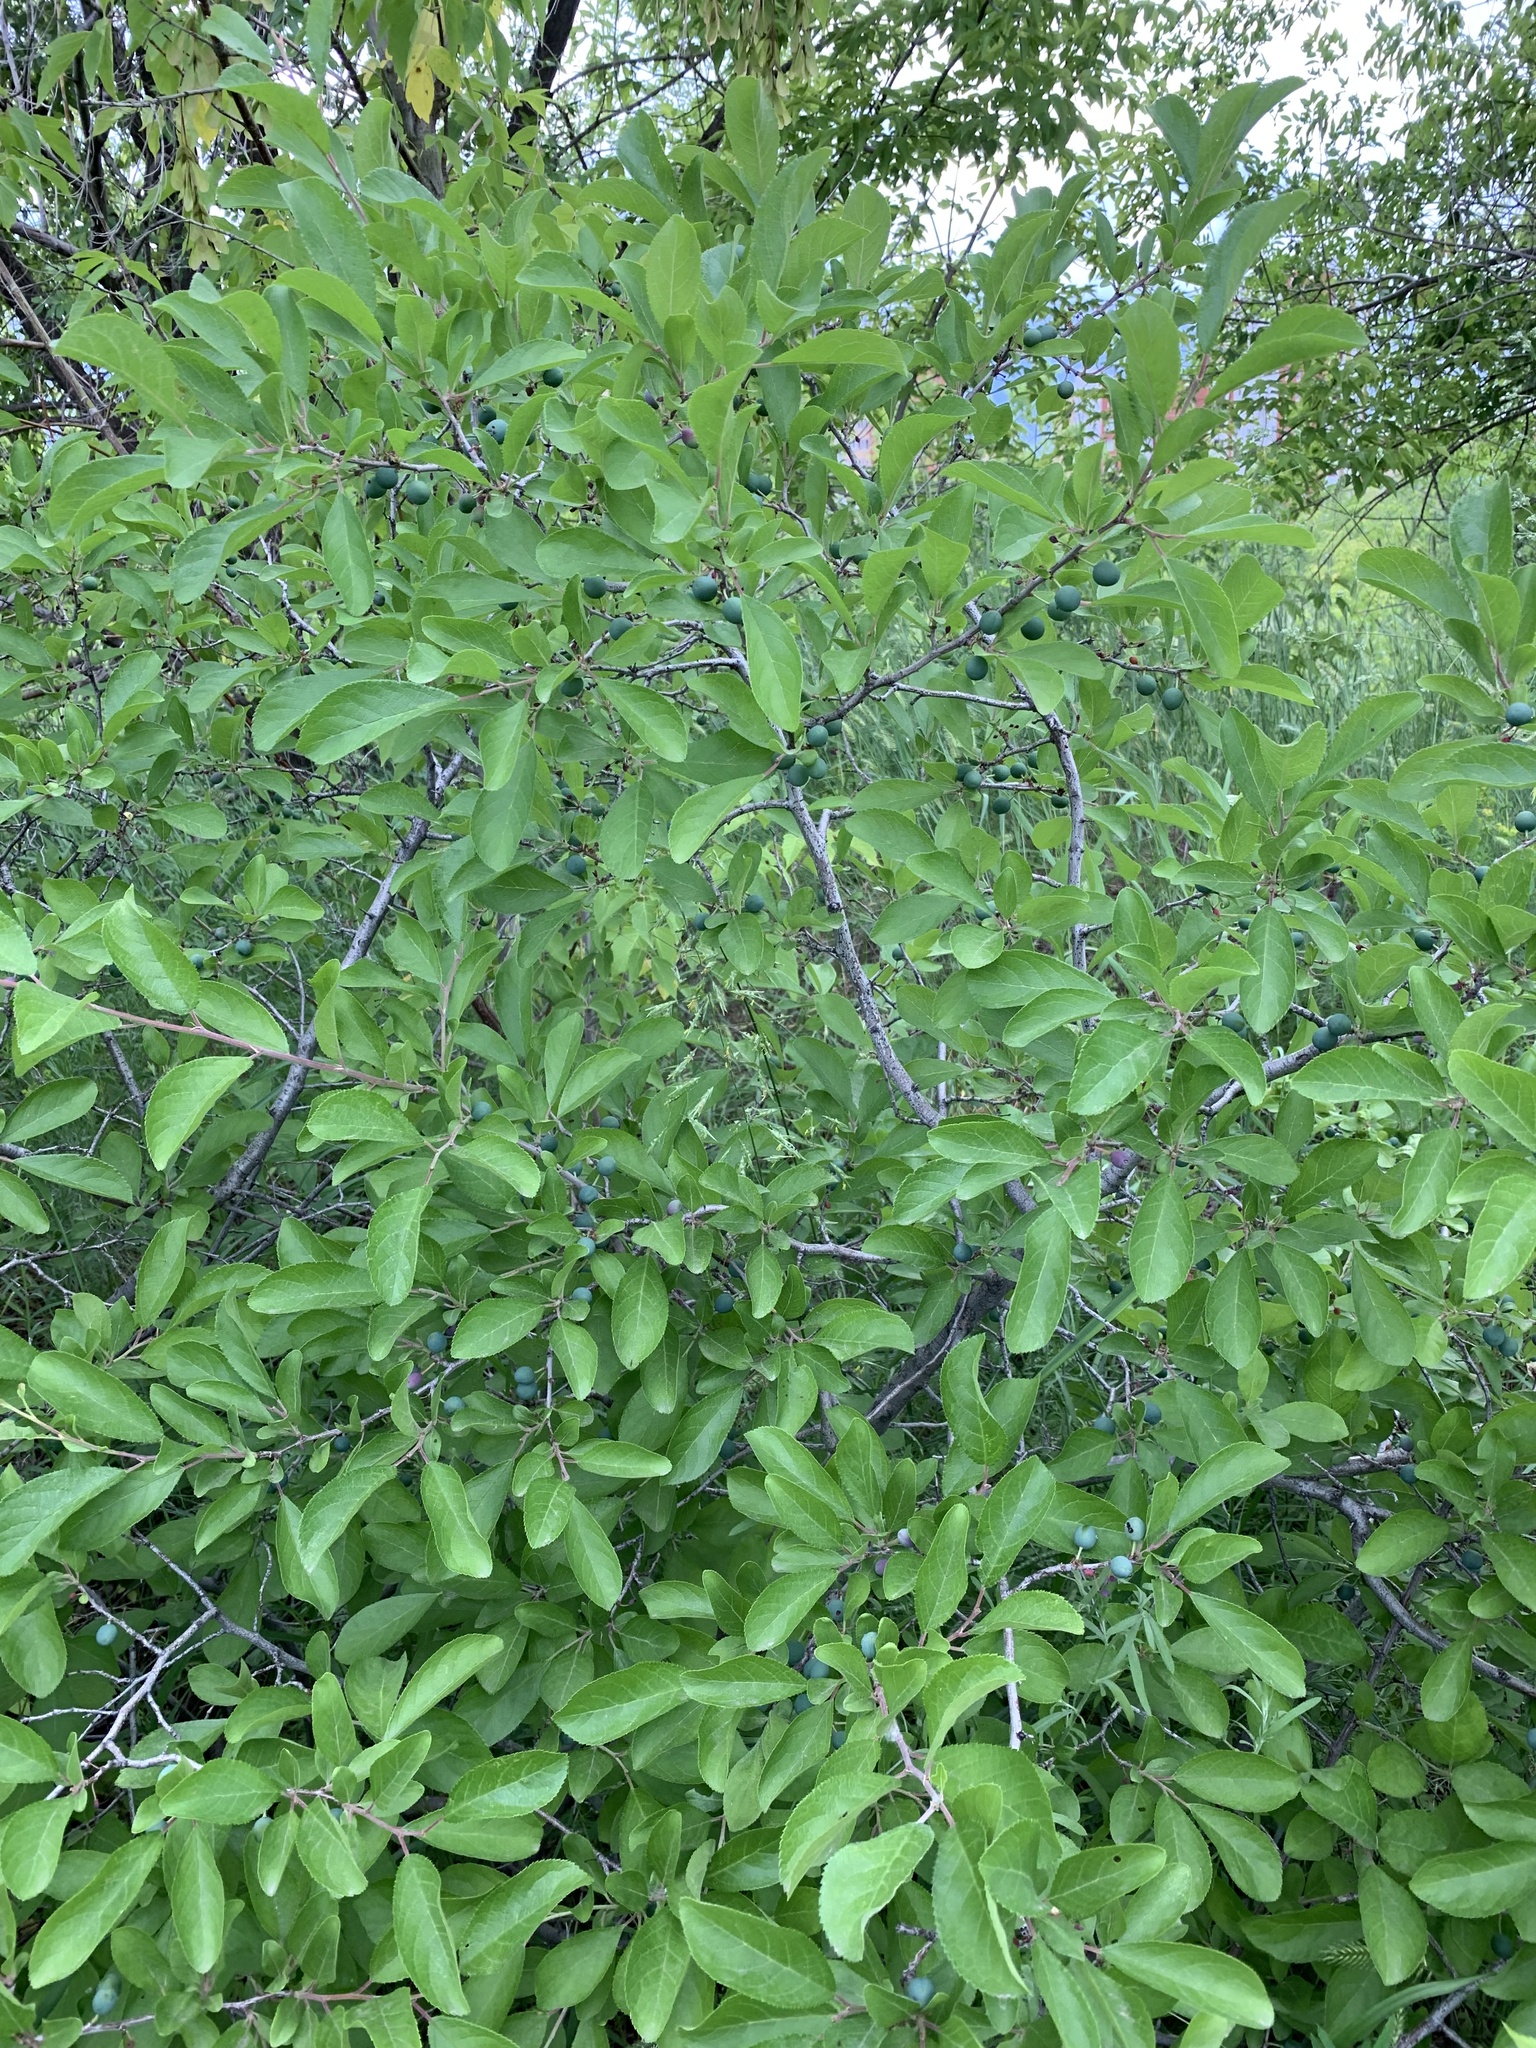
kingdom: Plantae
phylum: Tracheophyta
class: Magnoliopsida
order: Rosales
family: Rosaceae
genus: Prunus
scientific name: Prunus spinosa
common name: Blackthorn
